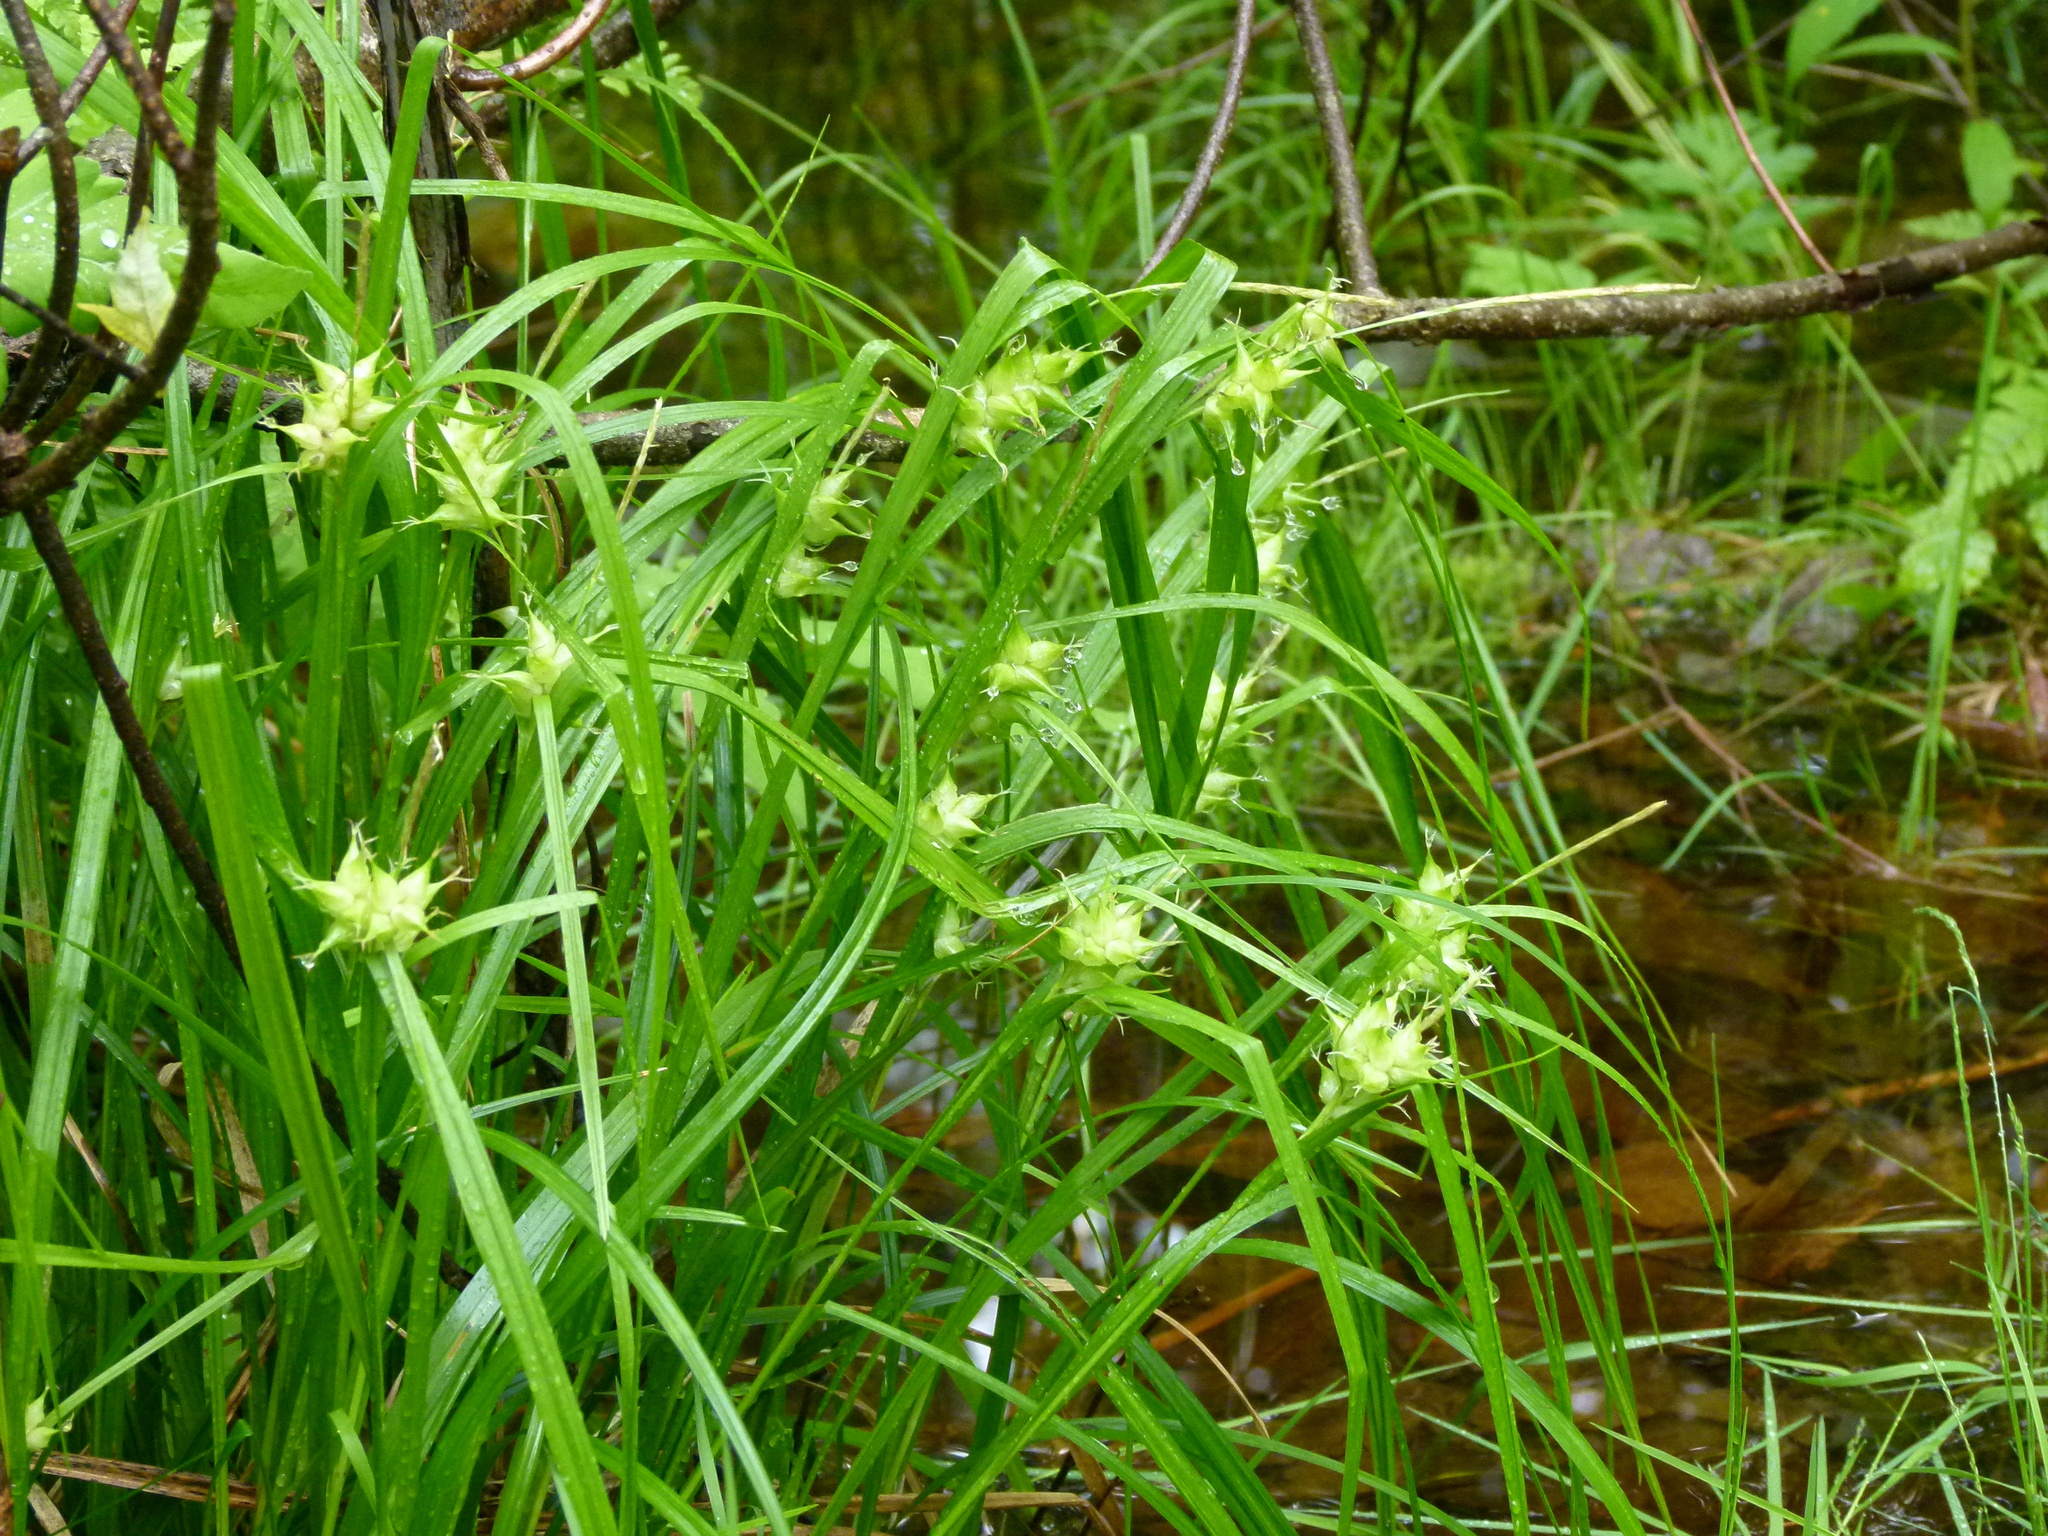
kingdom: Plantae
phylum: Tracheophyta
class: Liliopsida
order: Poales
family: Cyperaceae
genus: Carex
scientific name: Carex intumescens
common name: Greater bladder sedge
